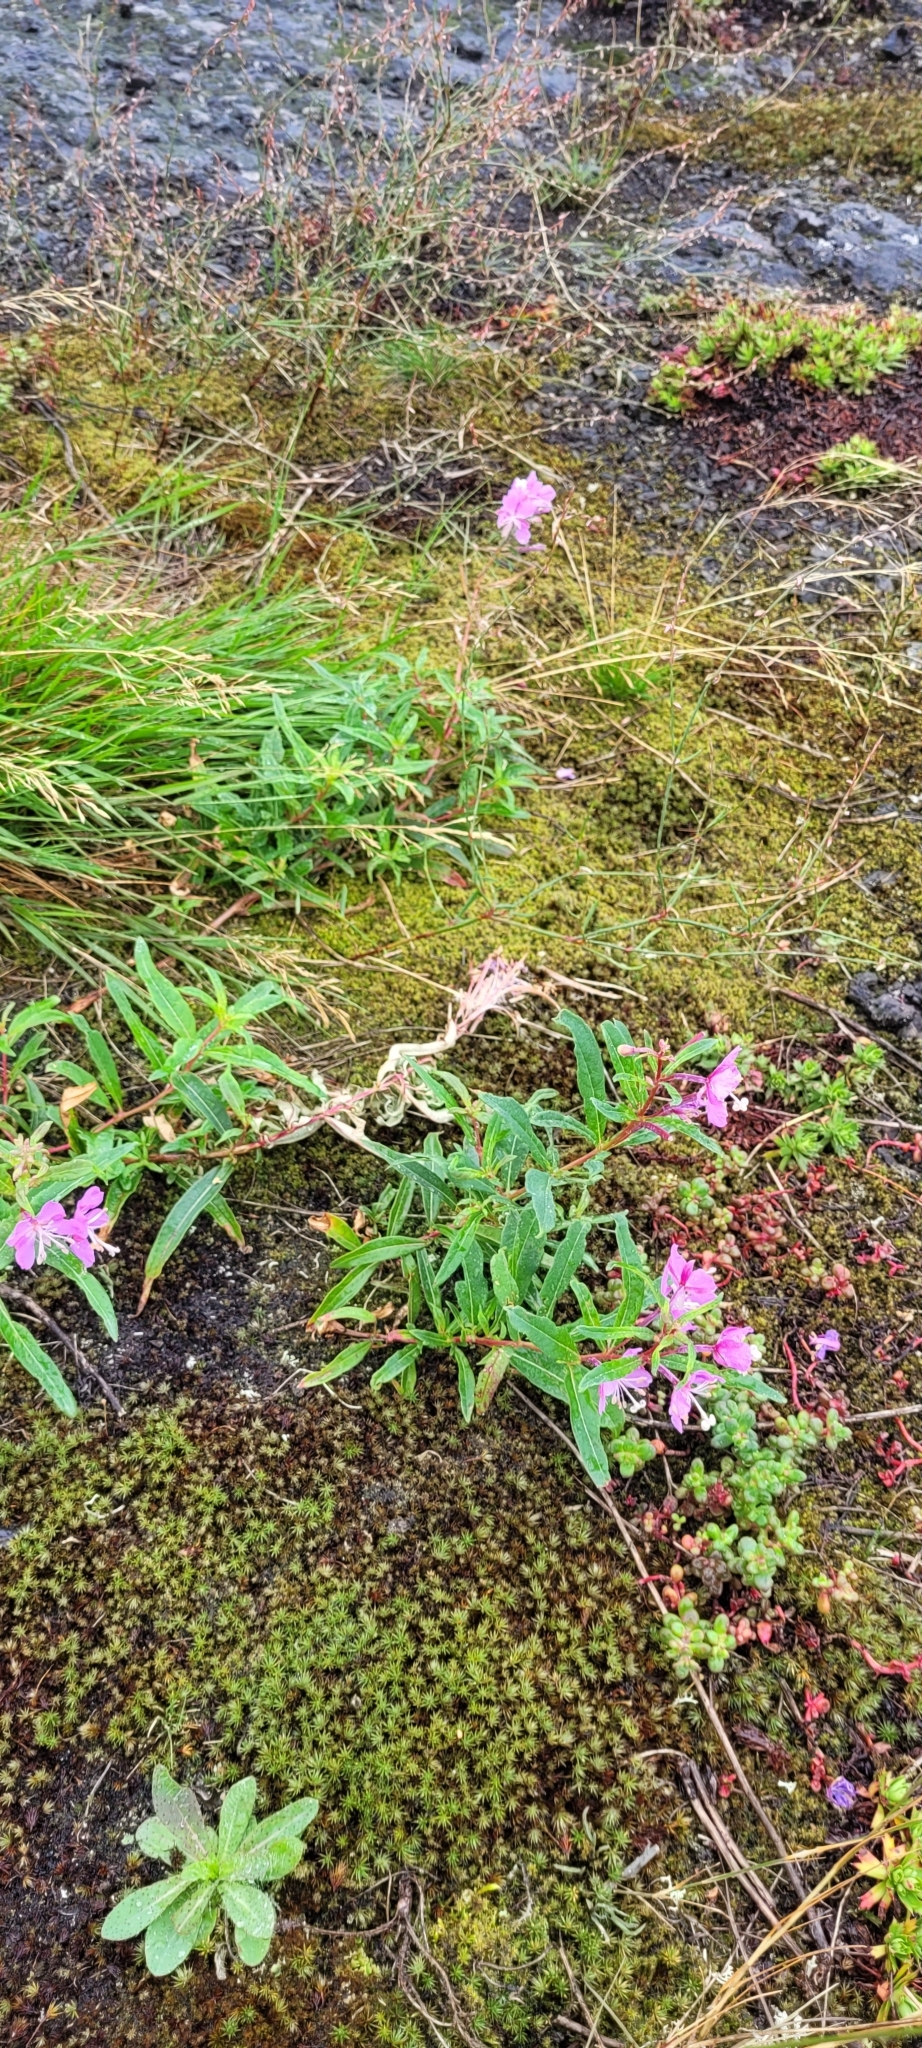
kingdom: Plantae
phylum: Tracheophyta
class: Magnoliopsida
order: Myrtales
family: Onagraceae
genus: Chamaenerion
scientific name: Chamaenerion angustifolium
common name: Fireweed
